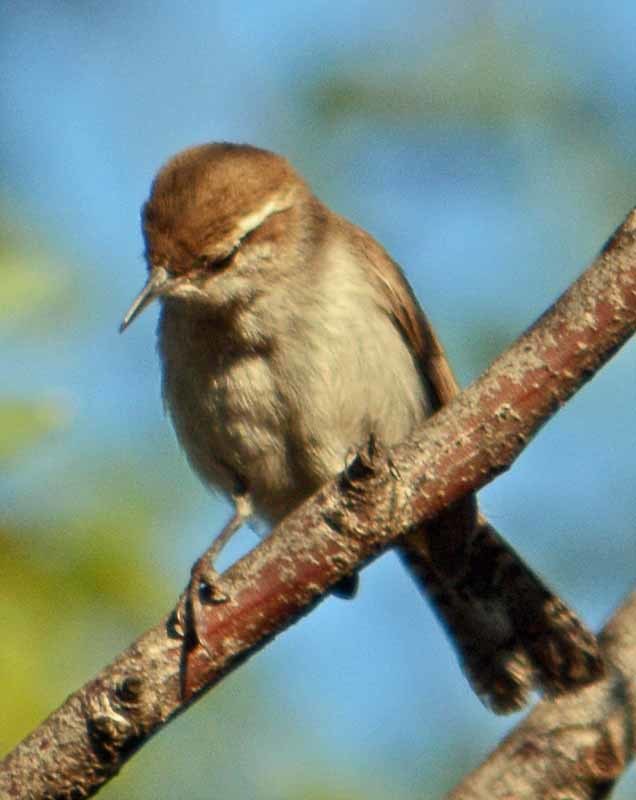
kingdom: Animalia
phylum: Chordata
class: Aves
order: Passeriformes
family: Troglodytidae
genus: Thryomanes
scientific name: Thryomanes bewickii
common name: Bewick's wren
